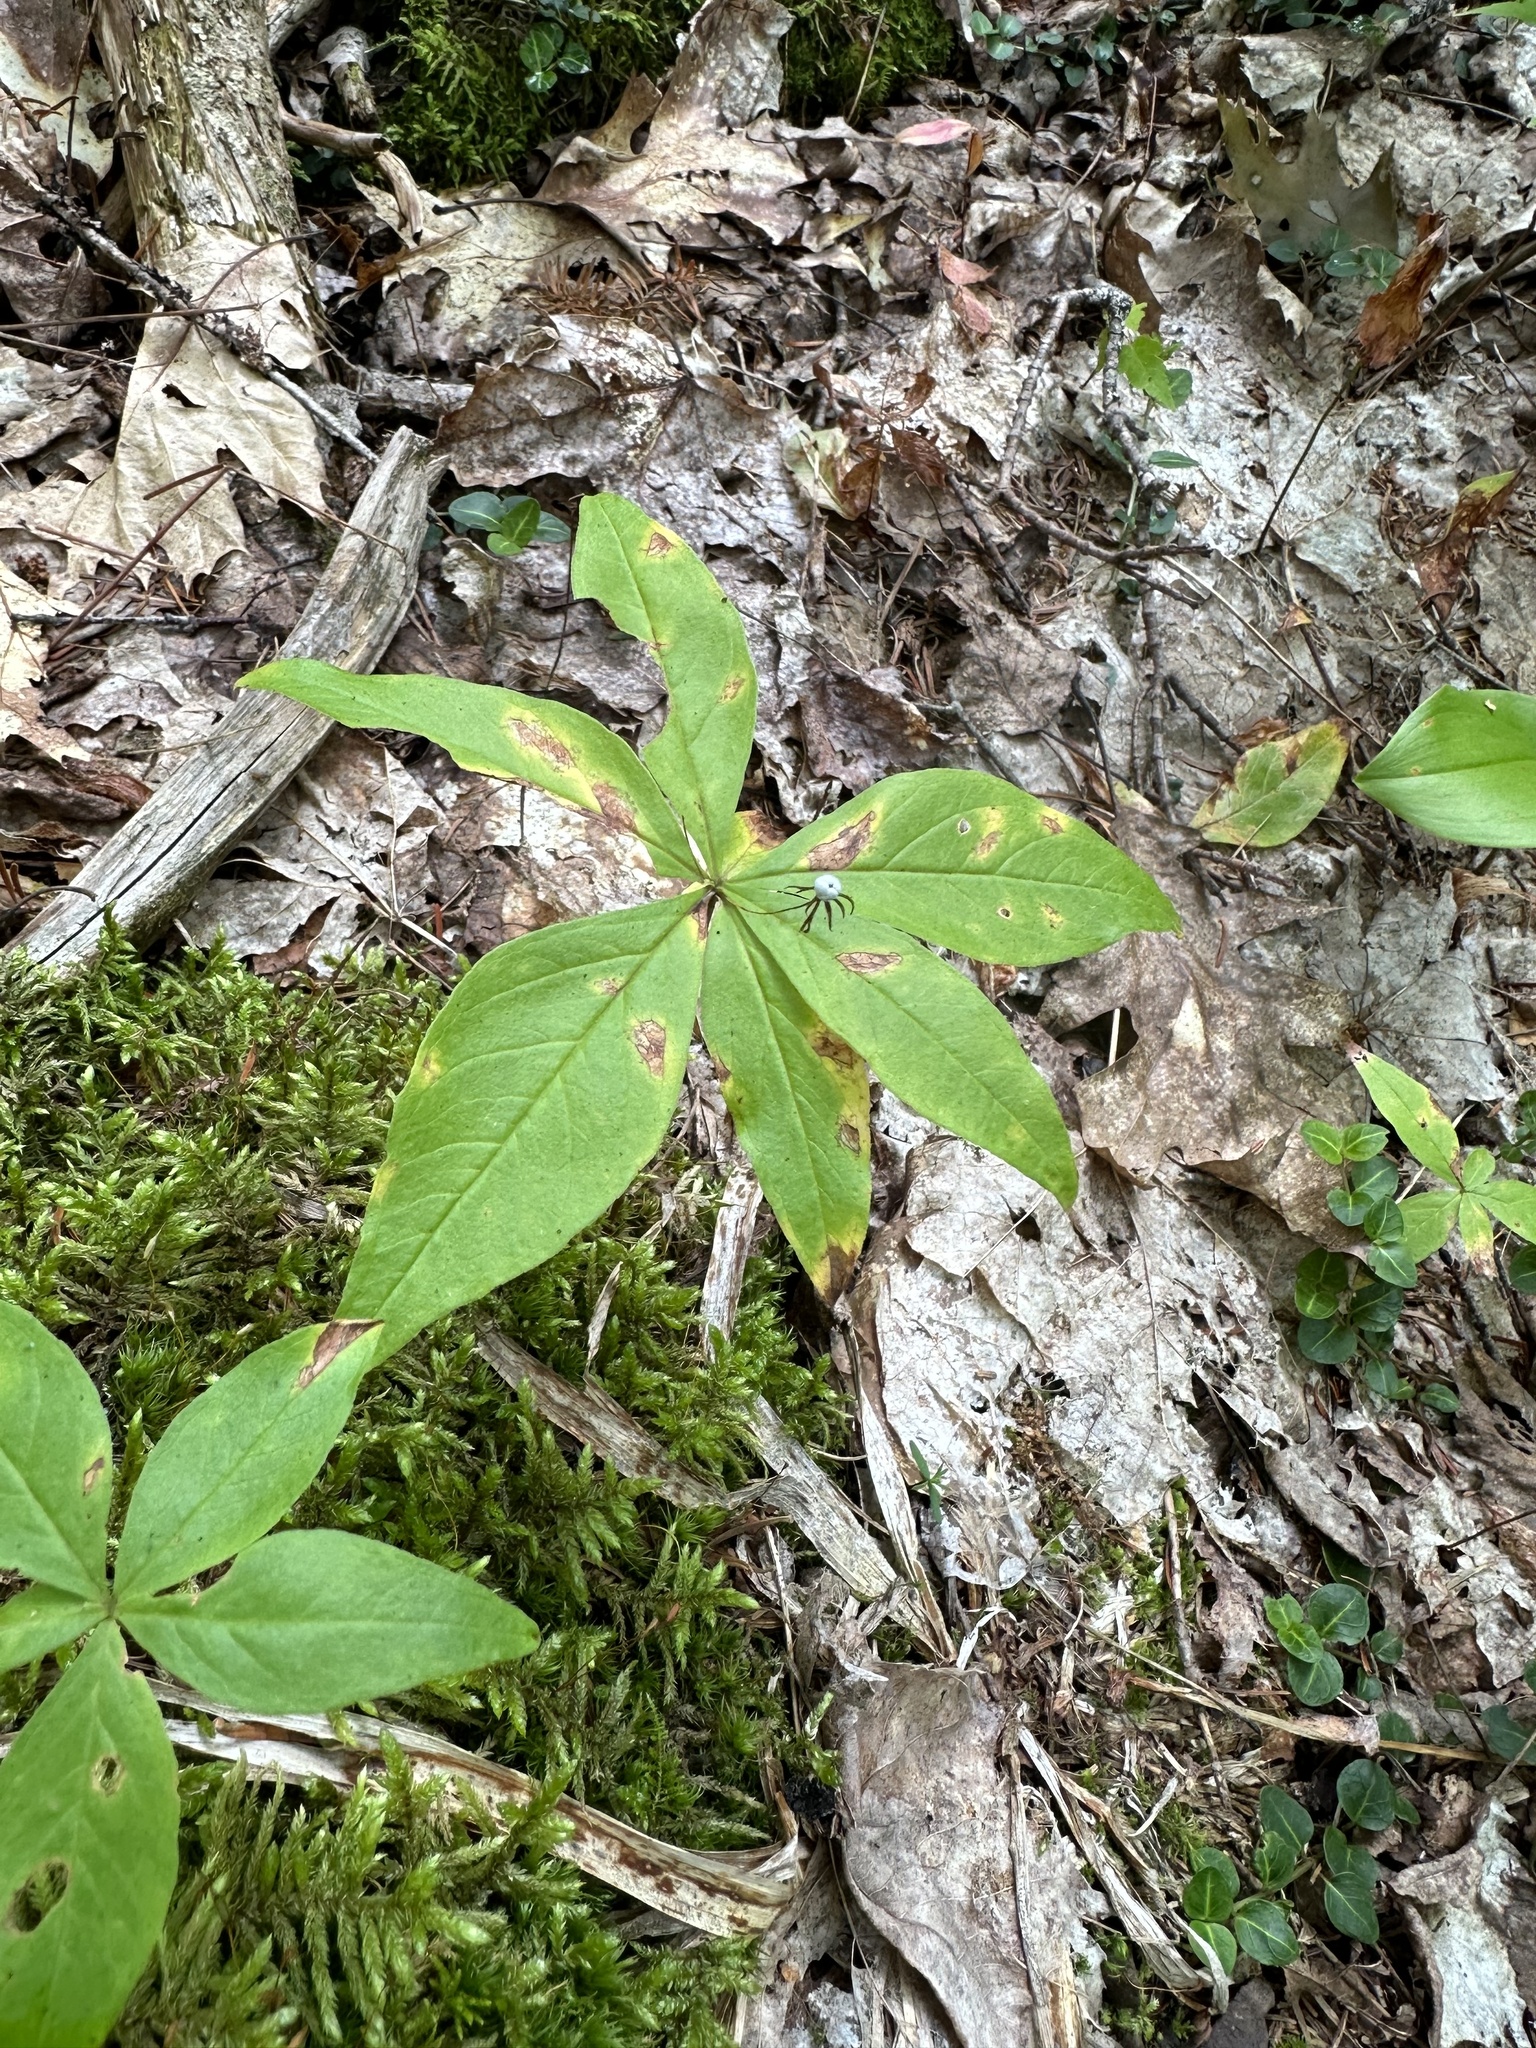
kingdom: Plantae
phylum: Tracheophyta
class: Magnoliopsida
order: Ericales
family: Primulaceae
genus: Lysimachia
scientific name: Lysimachia borealis
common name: American starflower
